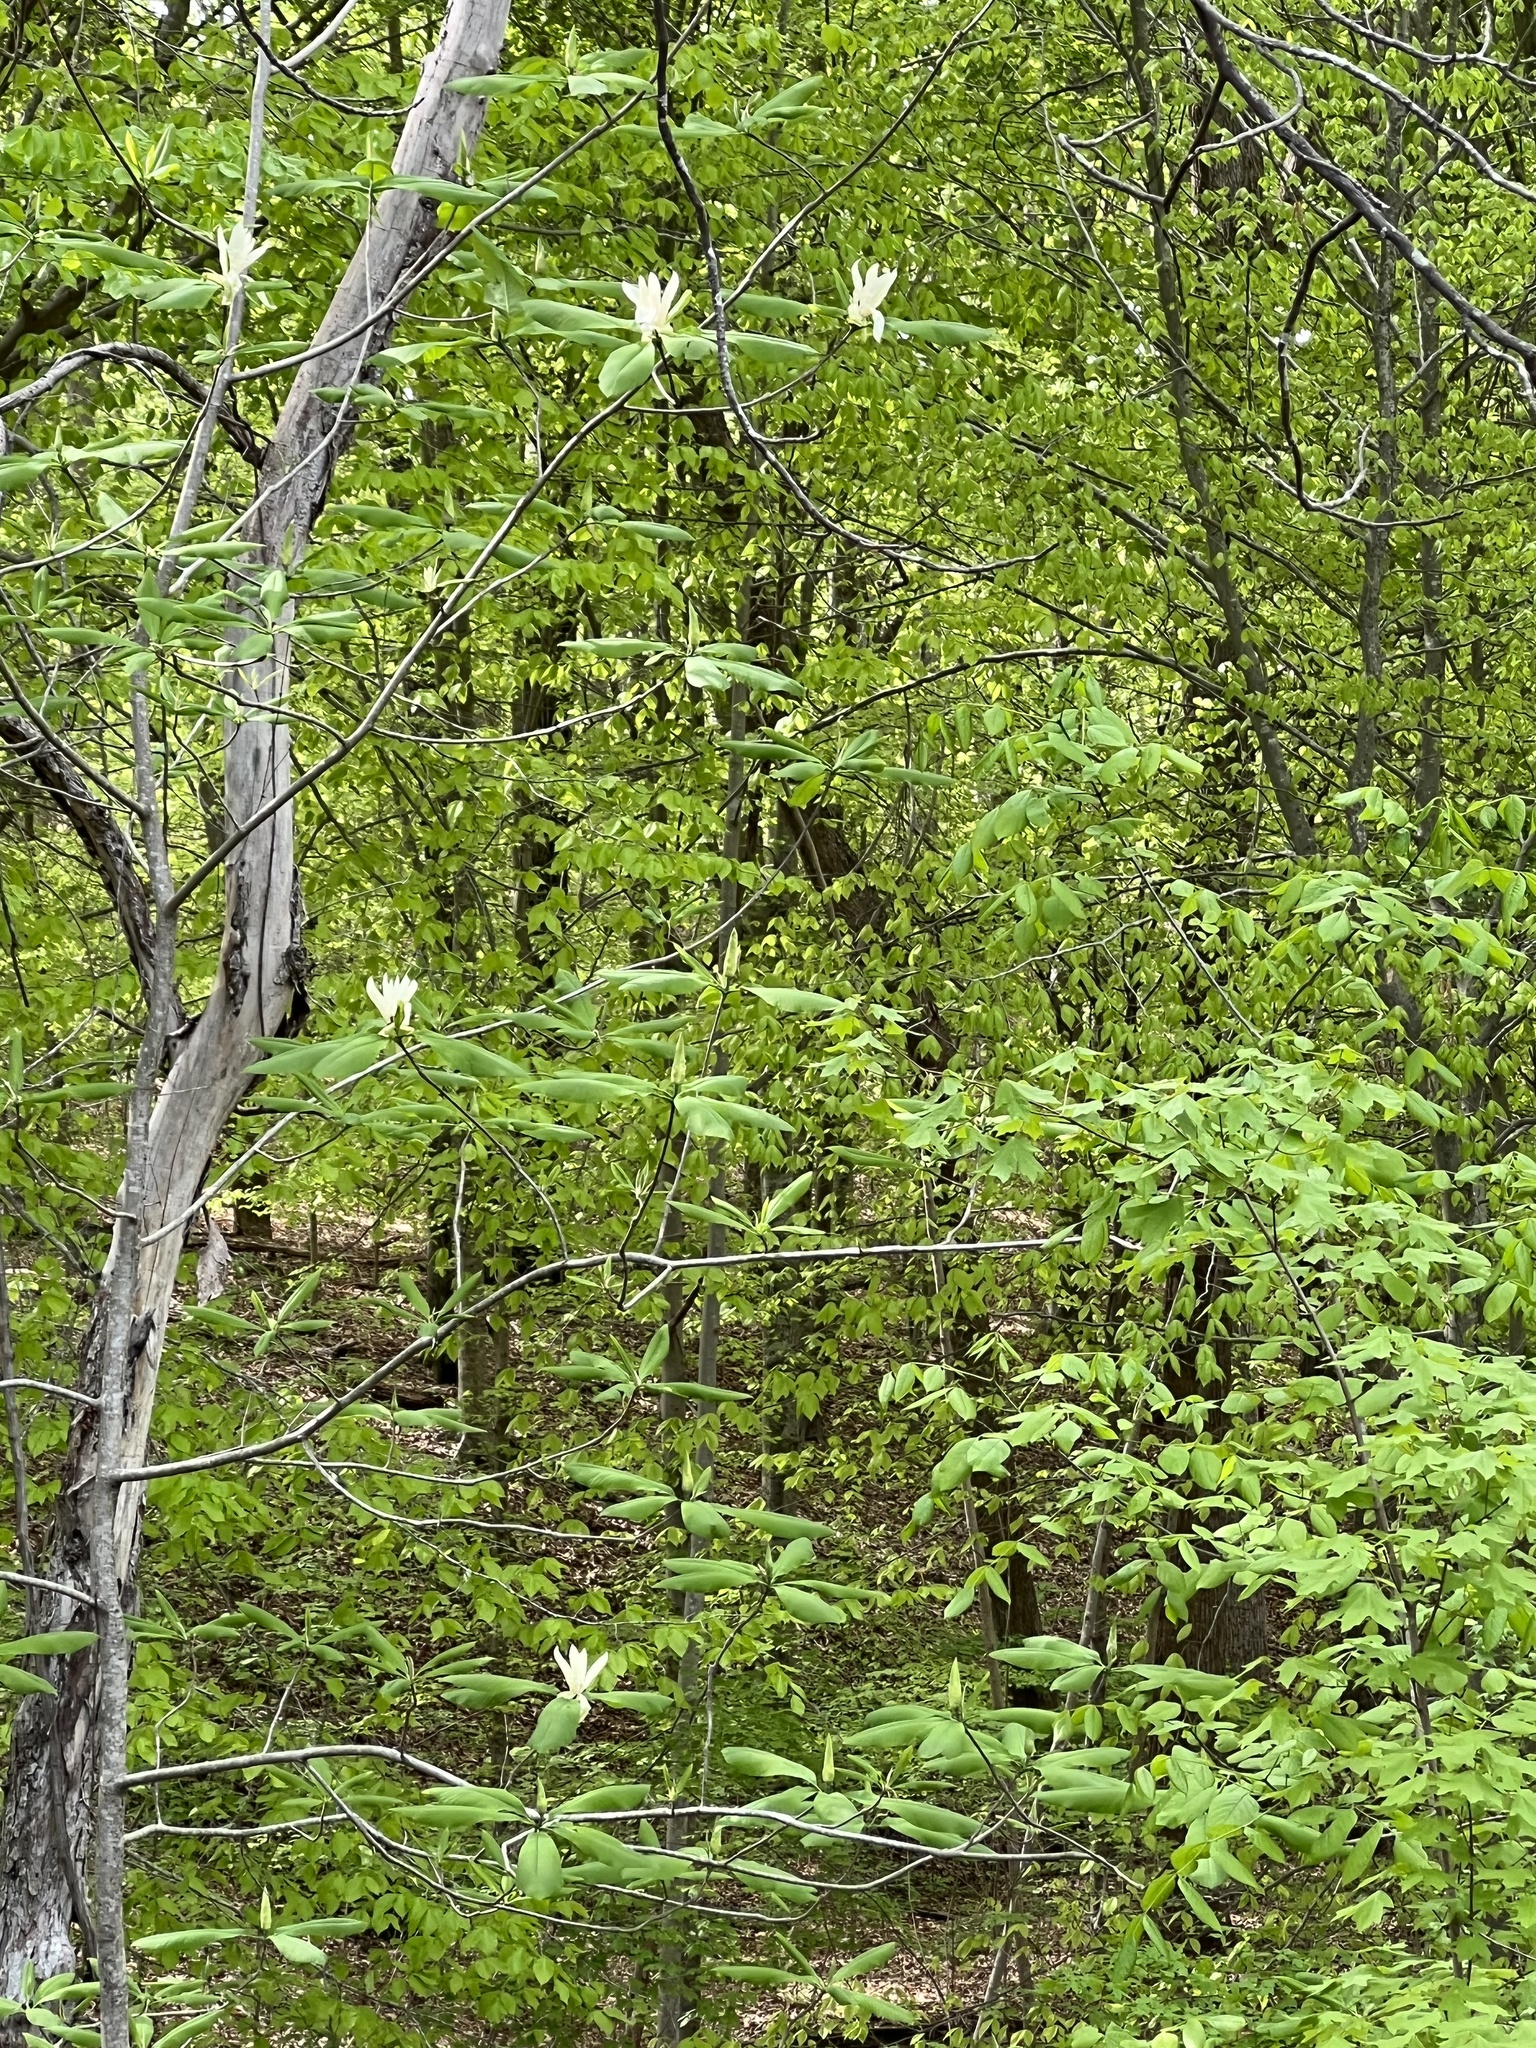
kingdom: Plantae
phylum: Tracheophyta
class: Magnoliopsida
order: Magnoliales
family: Magnoliaceae
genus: Magnolia
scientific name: Magnolia tripetala
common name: Umbrella magnolia
